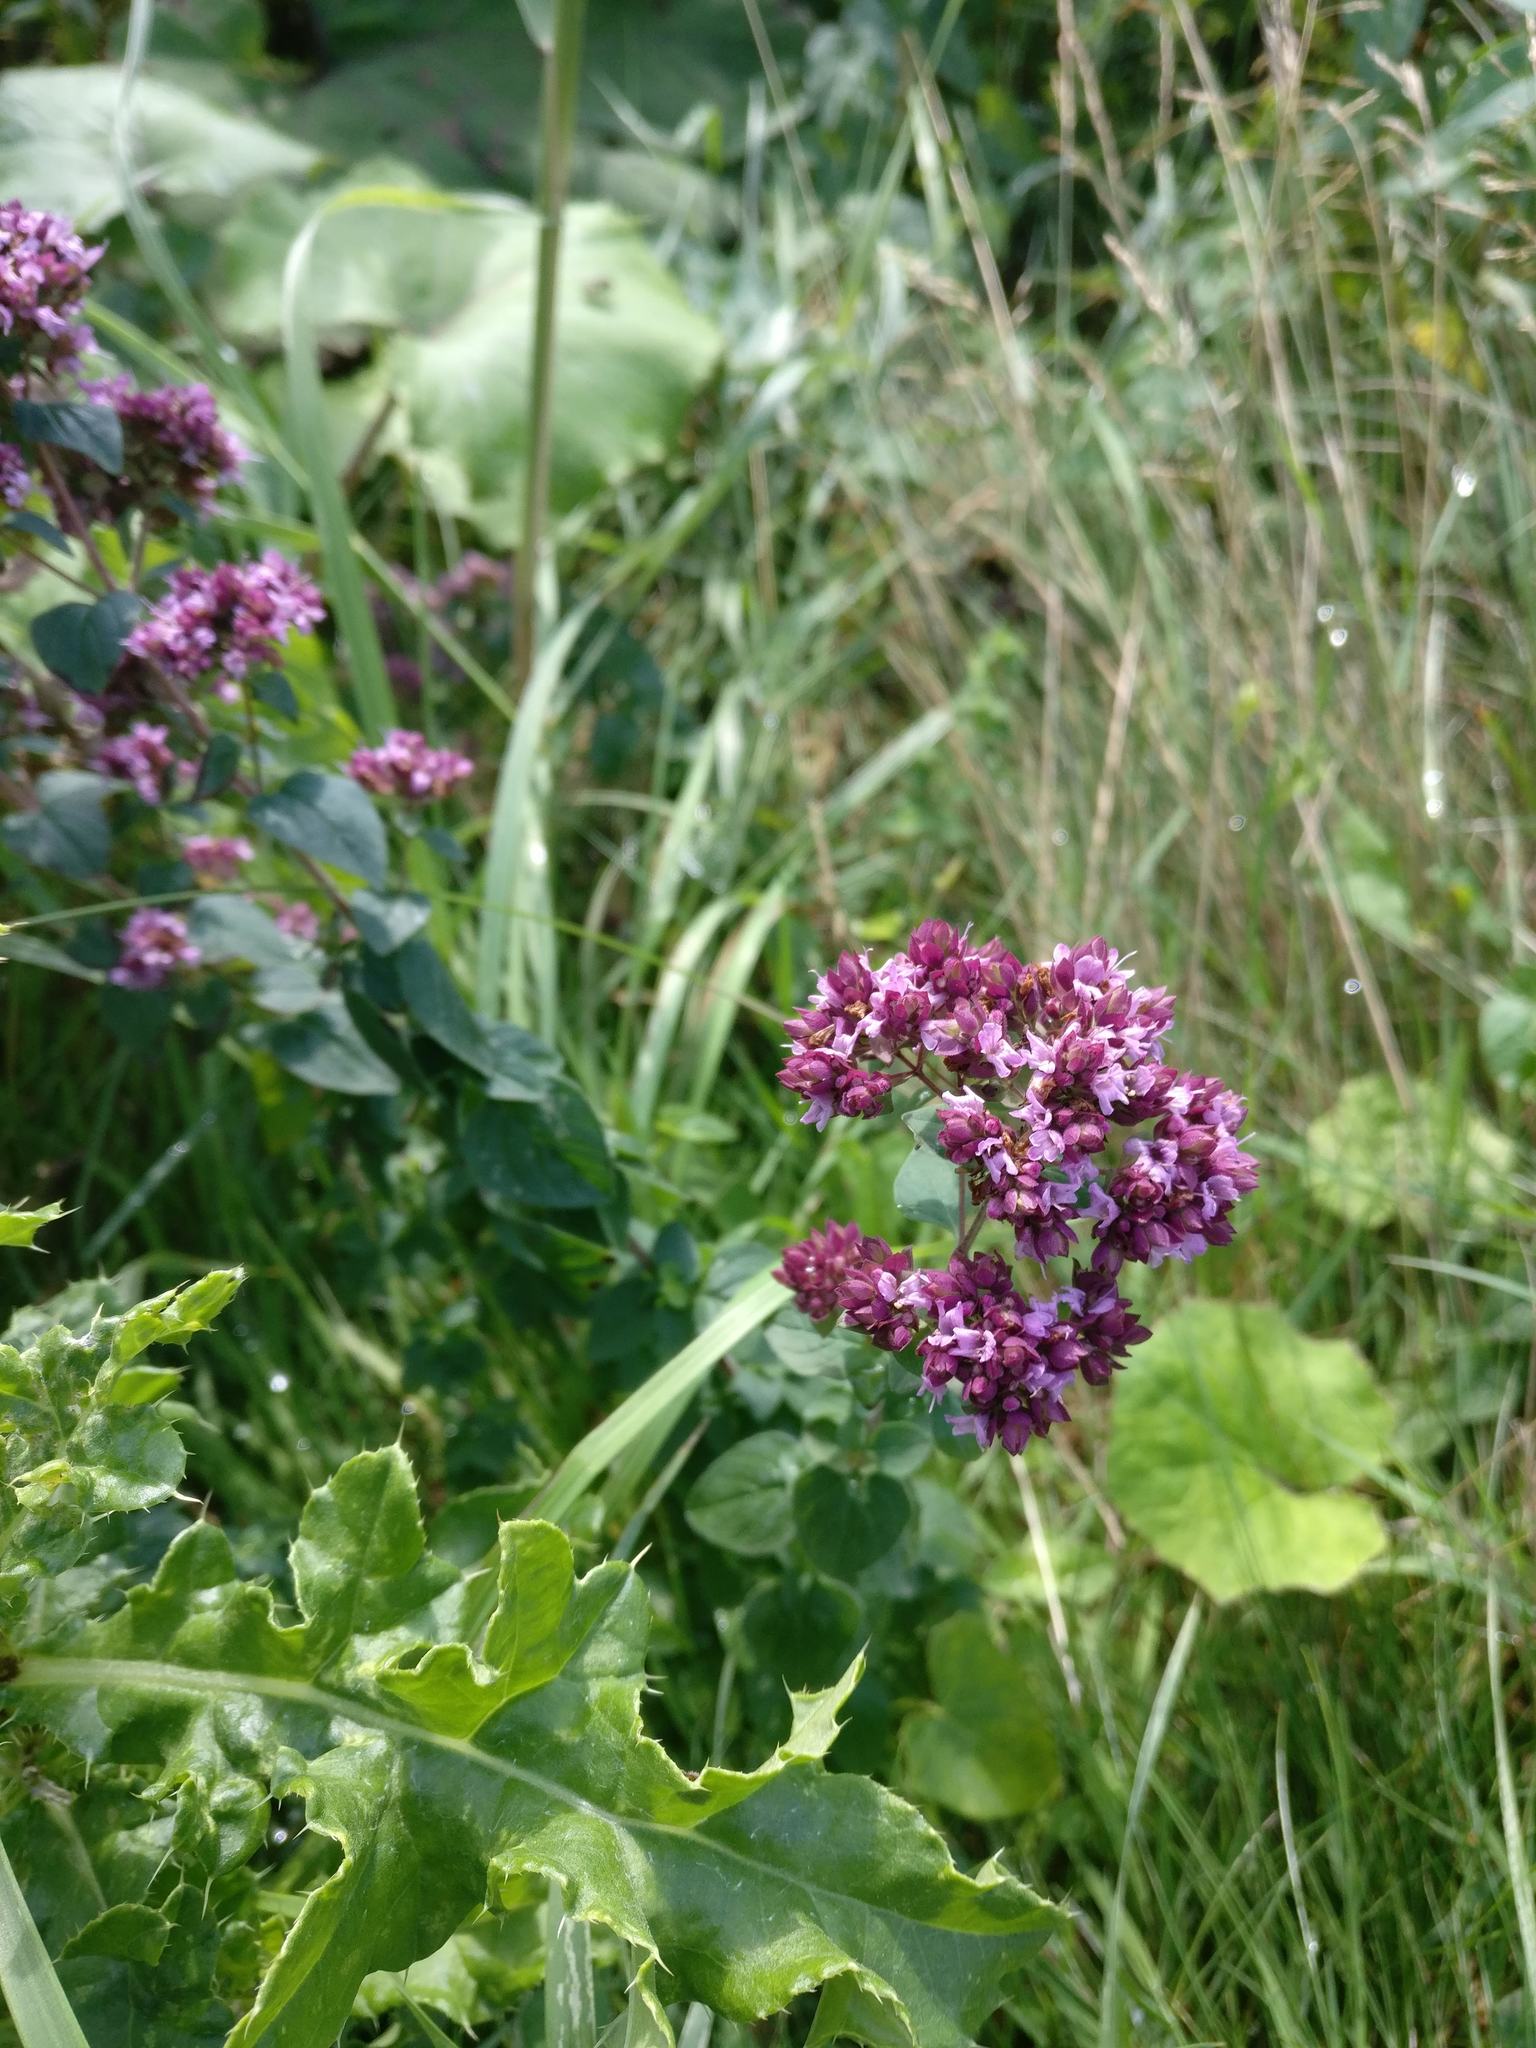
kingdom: Plantae
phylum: Tracheophyta
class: Magnoliopsida
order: Lamiales
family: Lamiaceae
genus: Origanum
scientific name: Origanum vulgare
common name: Wild marjoram
